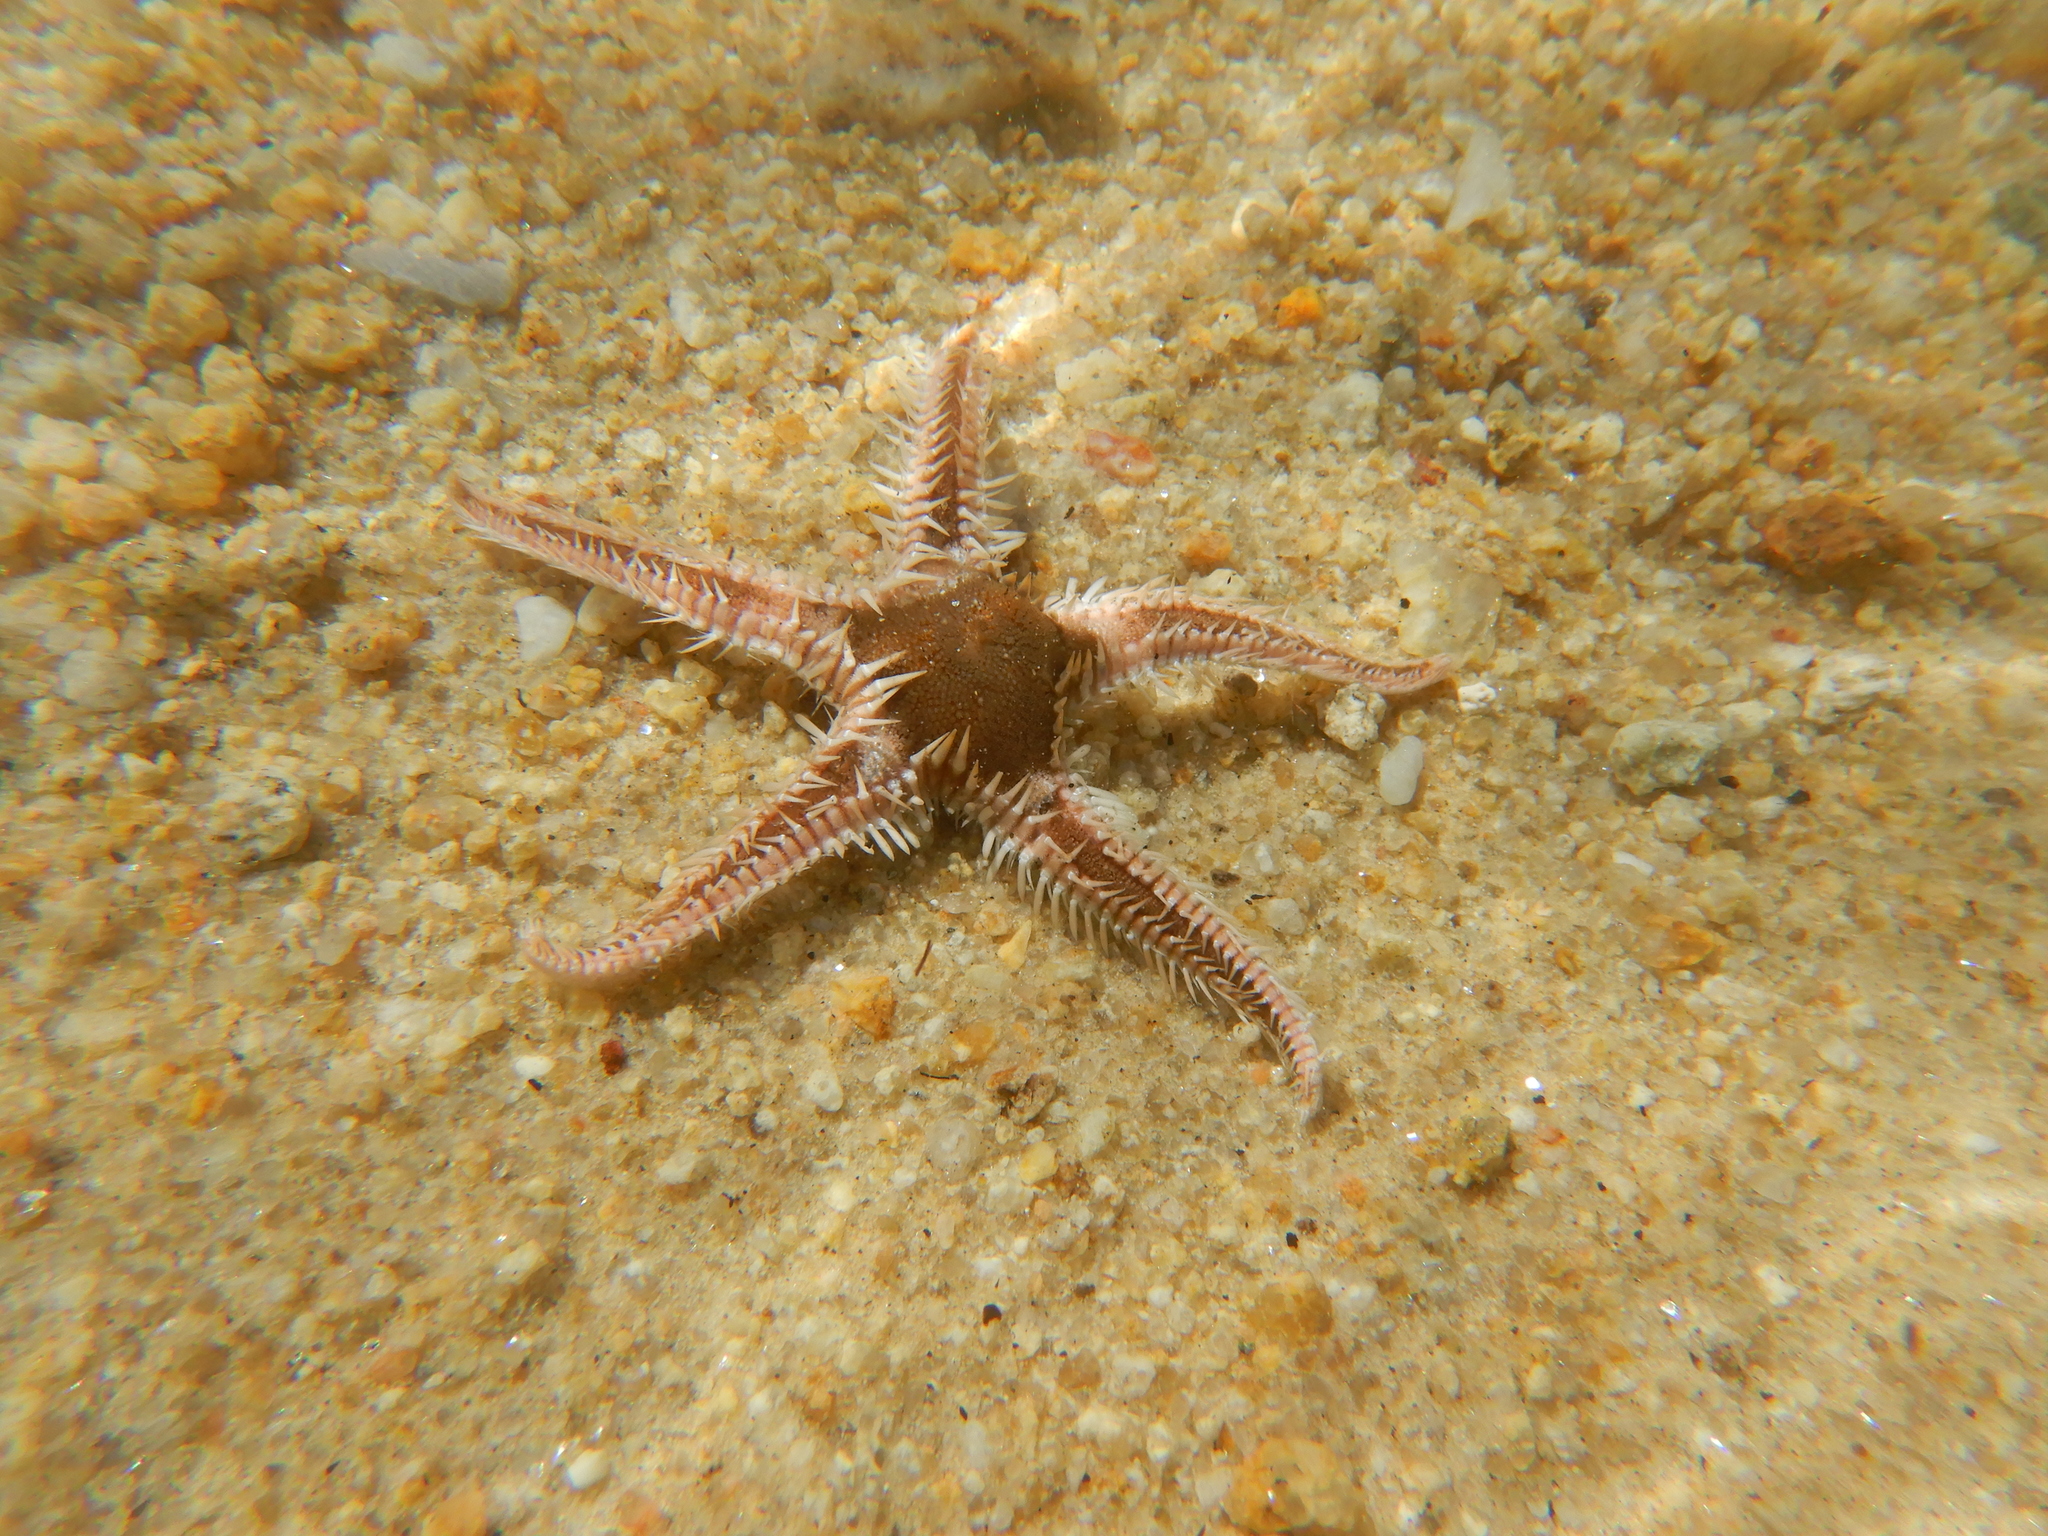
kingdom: Animalia
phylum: Echinodermata
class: Asteroidea
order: Paxillosida
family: Astropectinidae
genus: Astropecten
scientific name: Astropecten bispinosus
